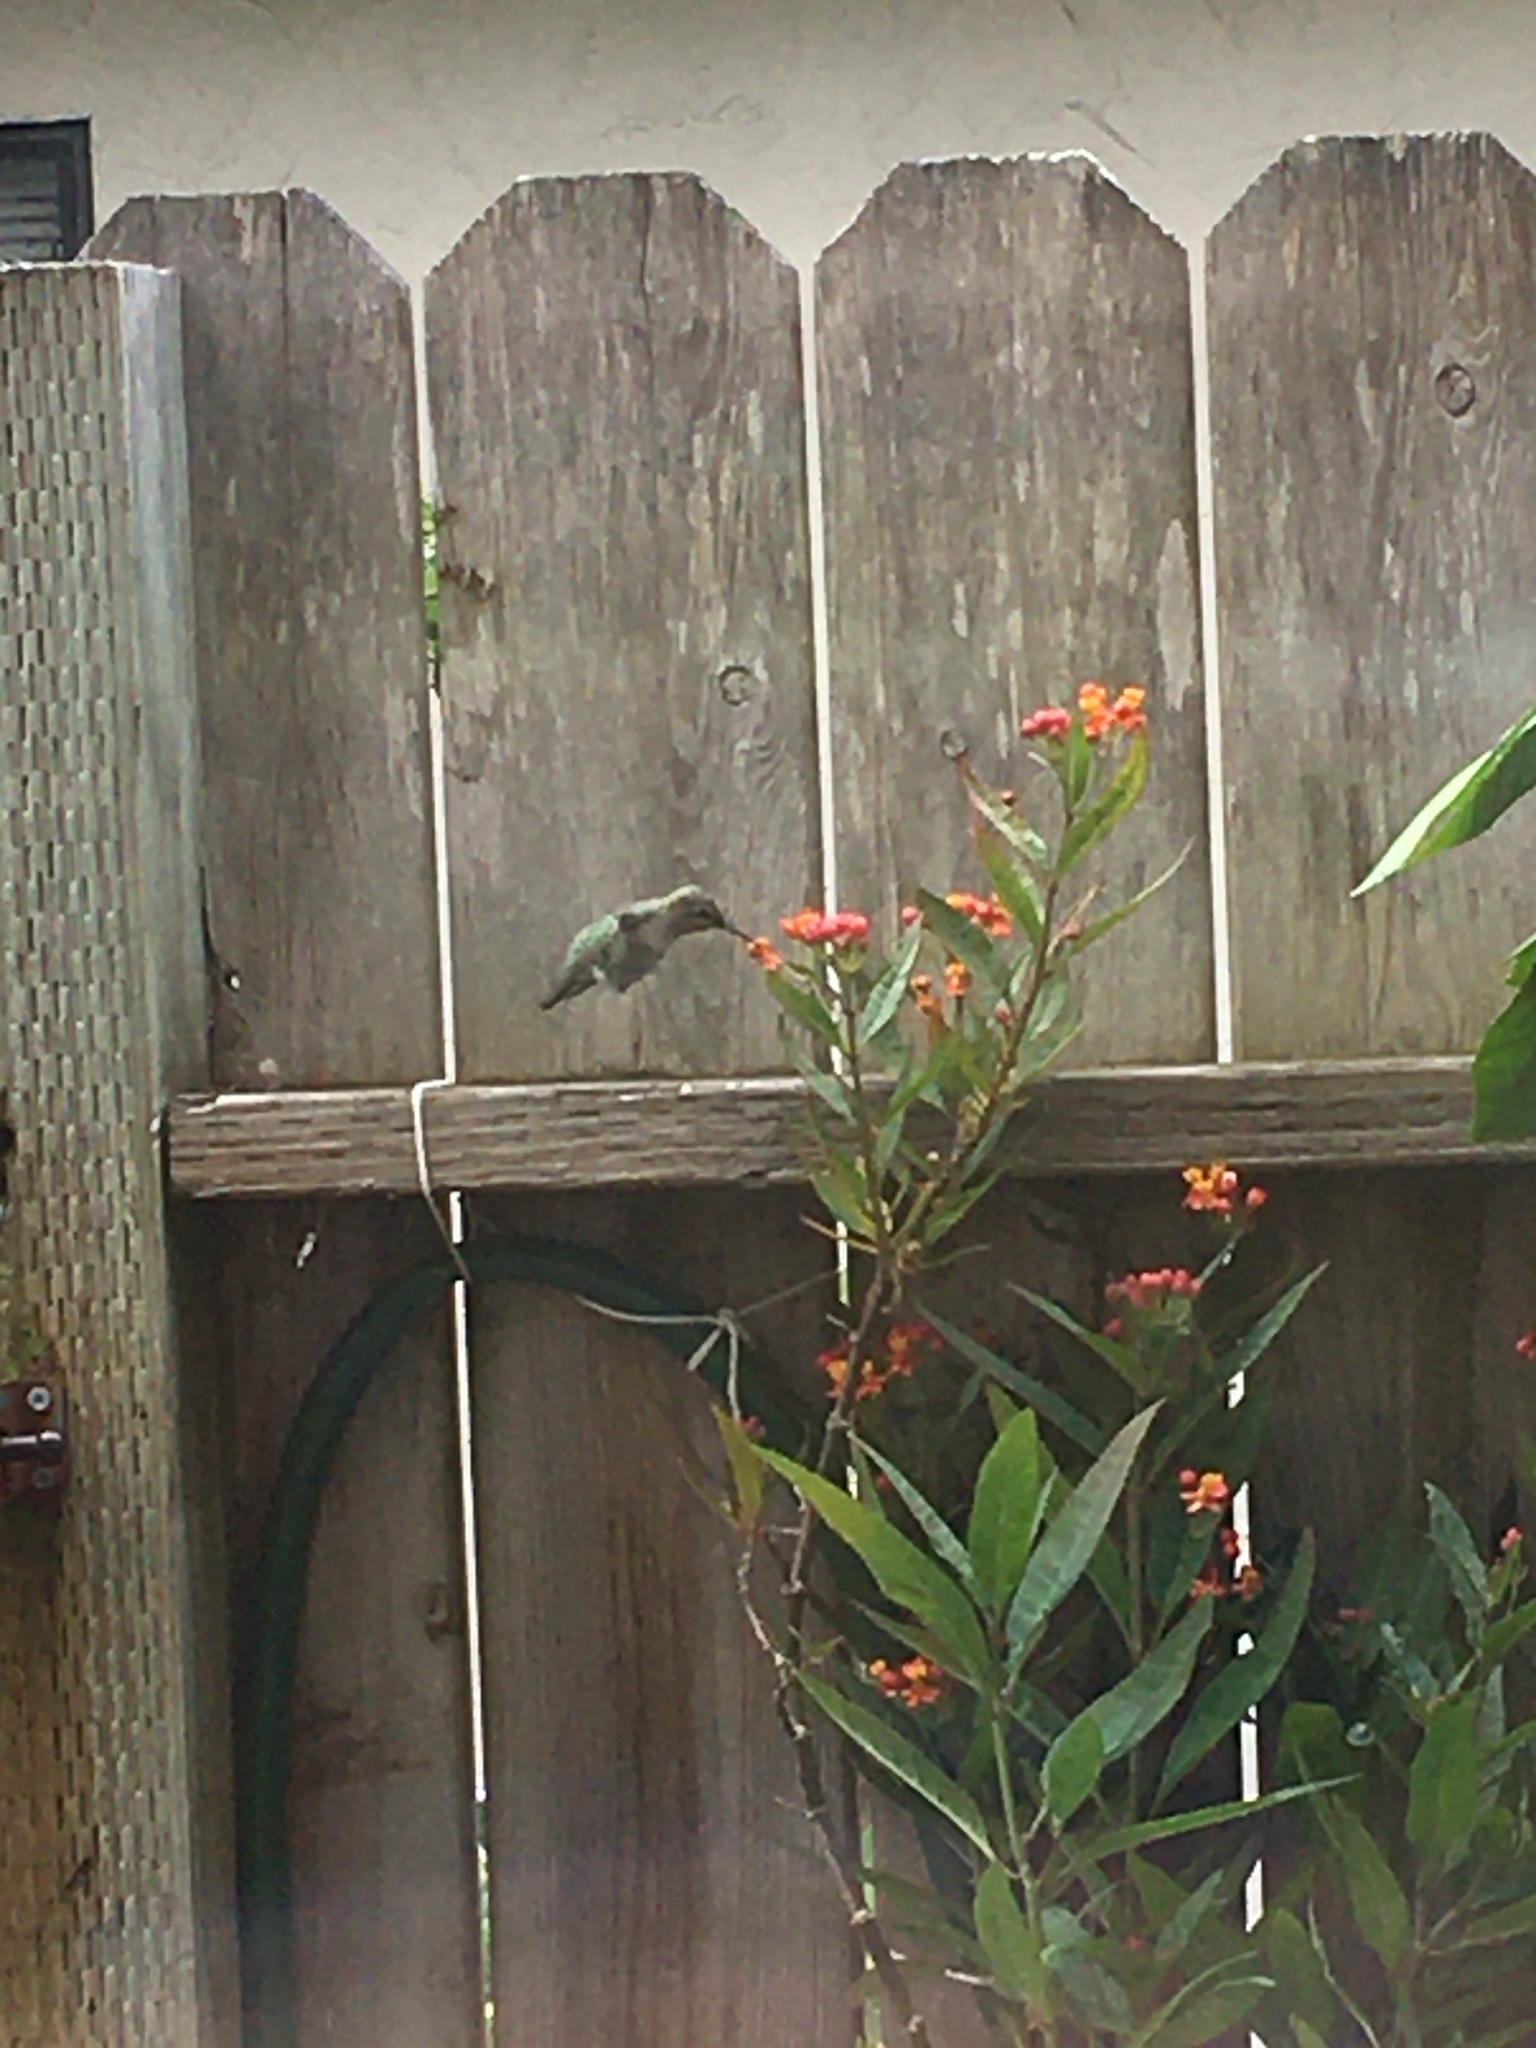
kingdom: Animalia
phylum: Chordata
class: Aves
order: Apodiformes
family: Trochilidae
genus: Calypte
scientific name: Calypte anna
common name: Anna's hummingbird
